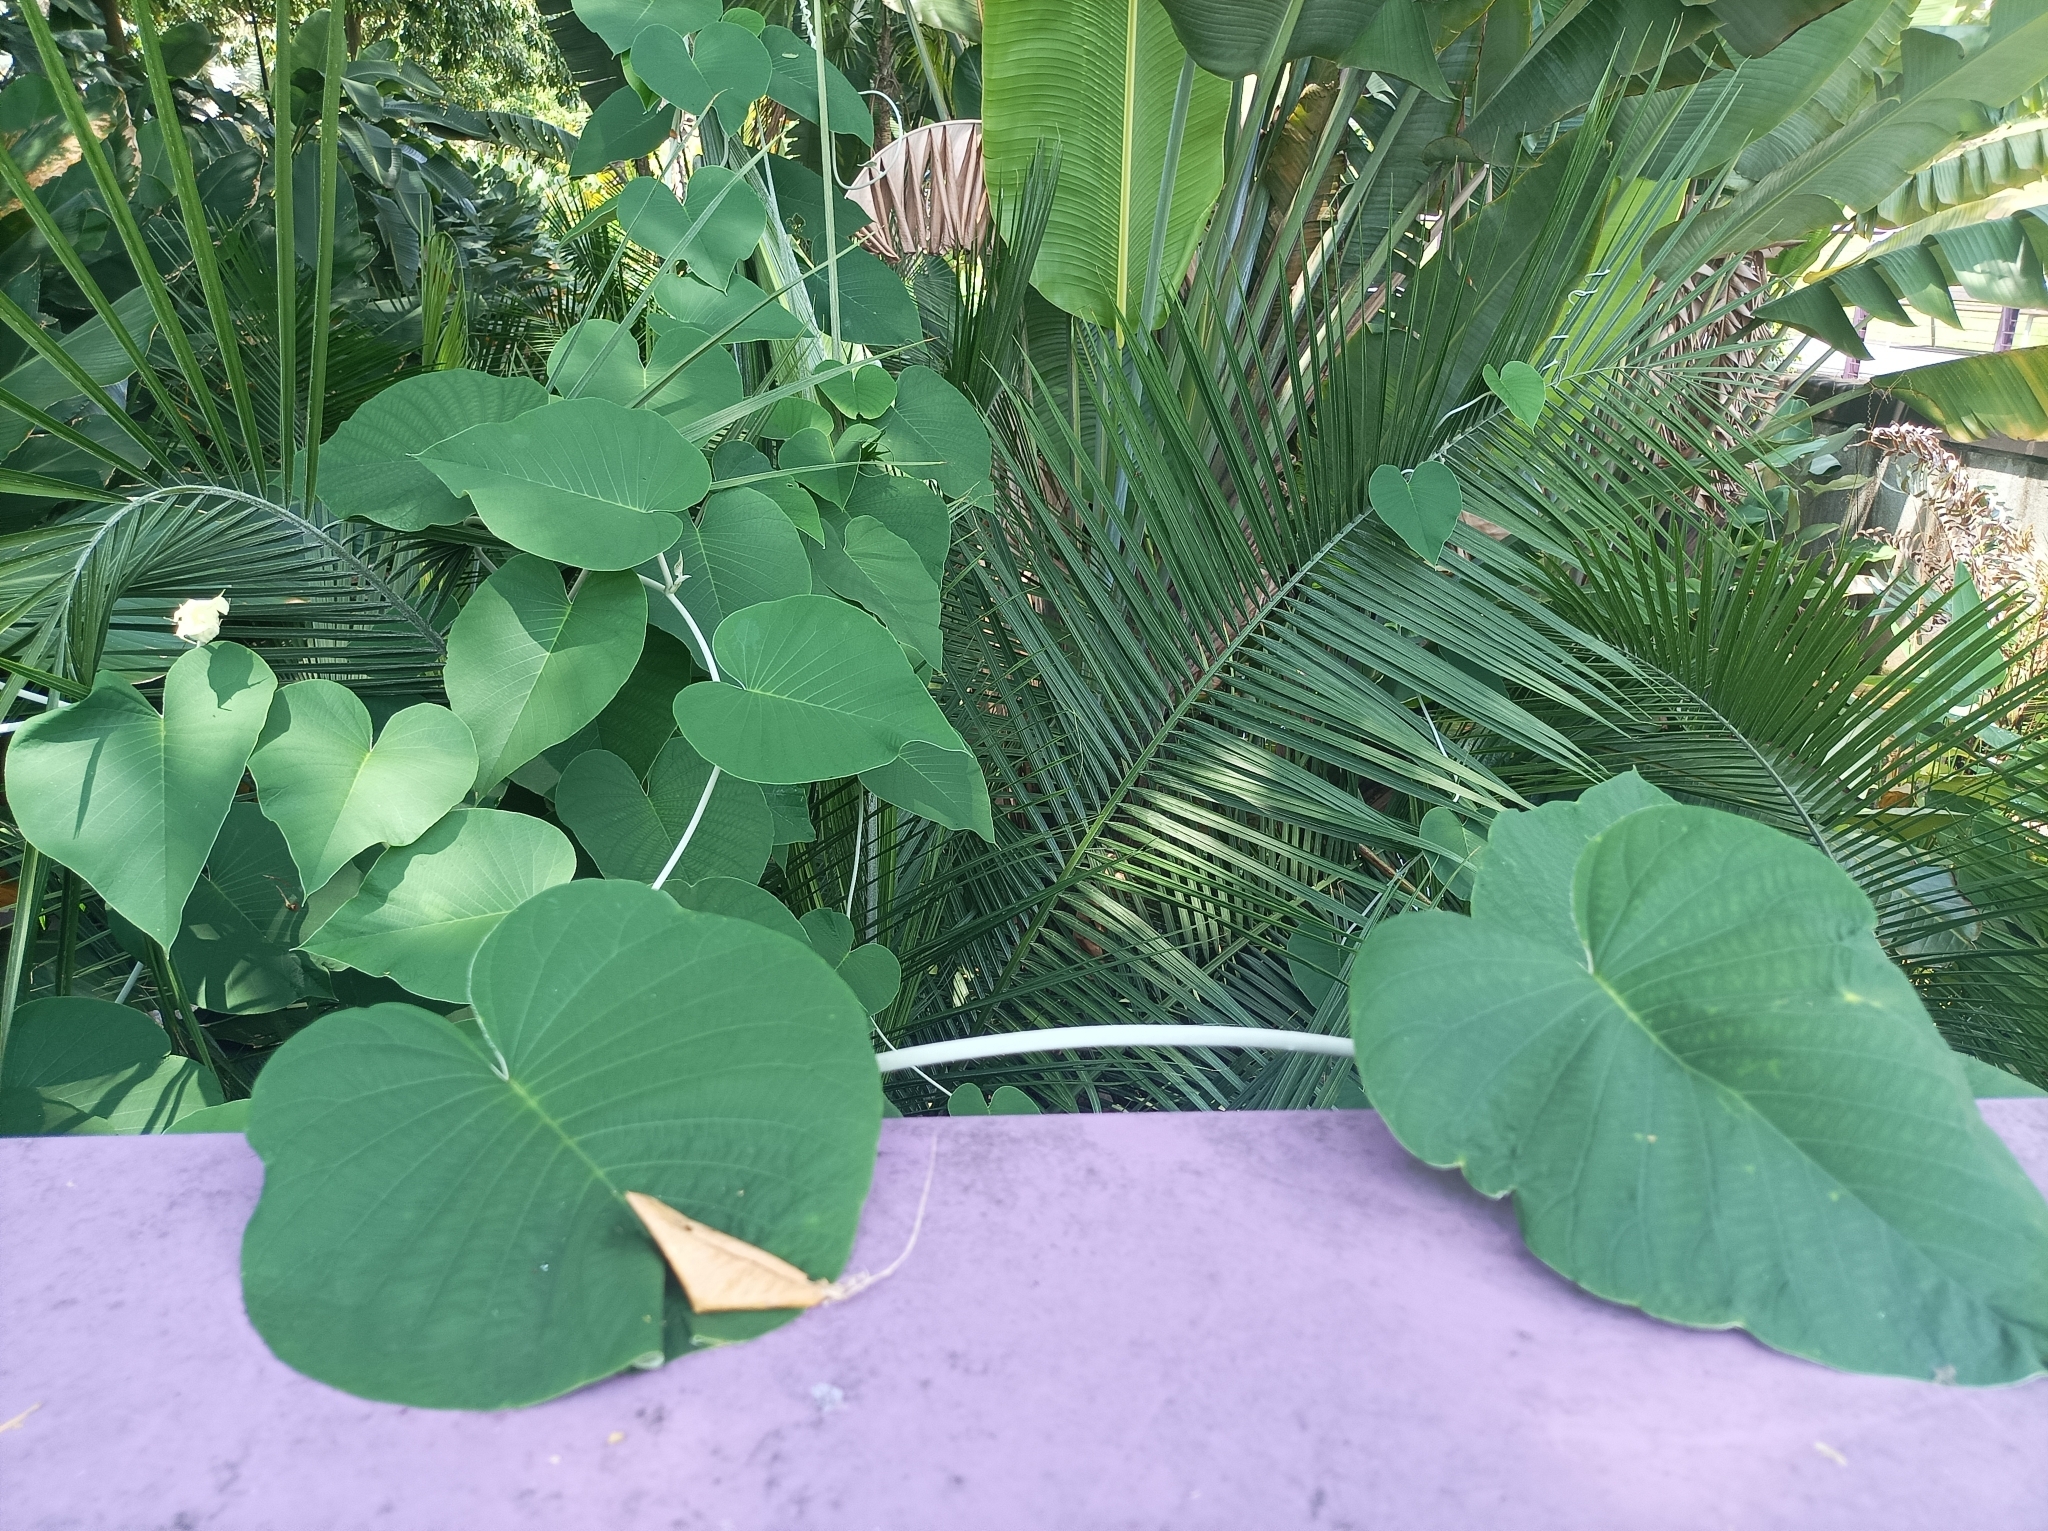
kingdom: Plantae
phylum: Tracheophyta
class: Magnoliopsida
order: Solanales
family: Convolvulaceae
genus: Argyreia
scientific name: Argyreia nervosa
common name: Elephant creeper
